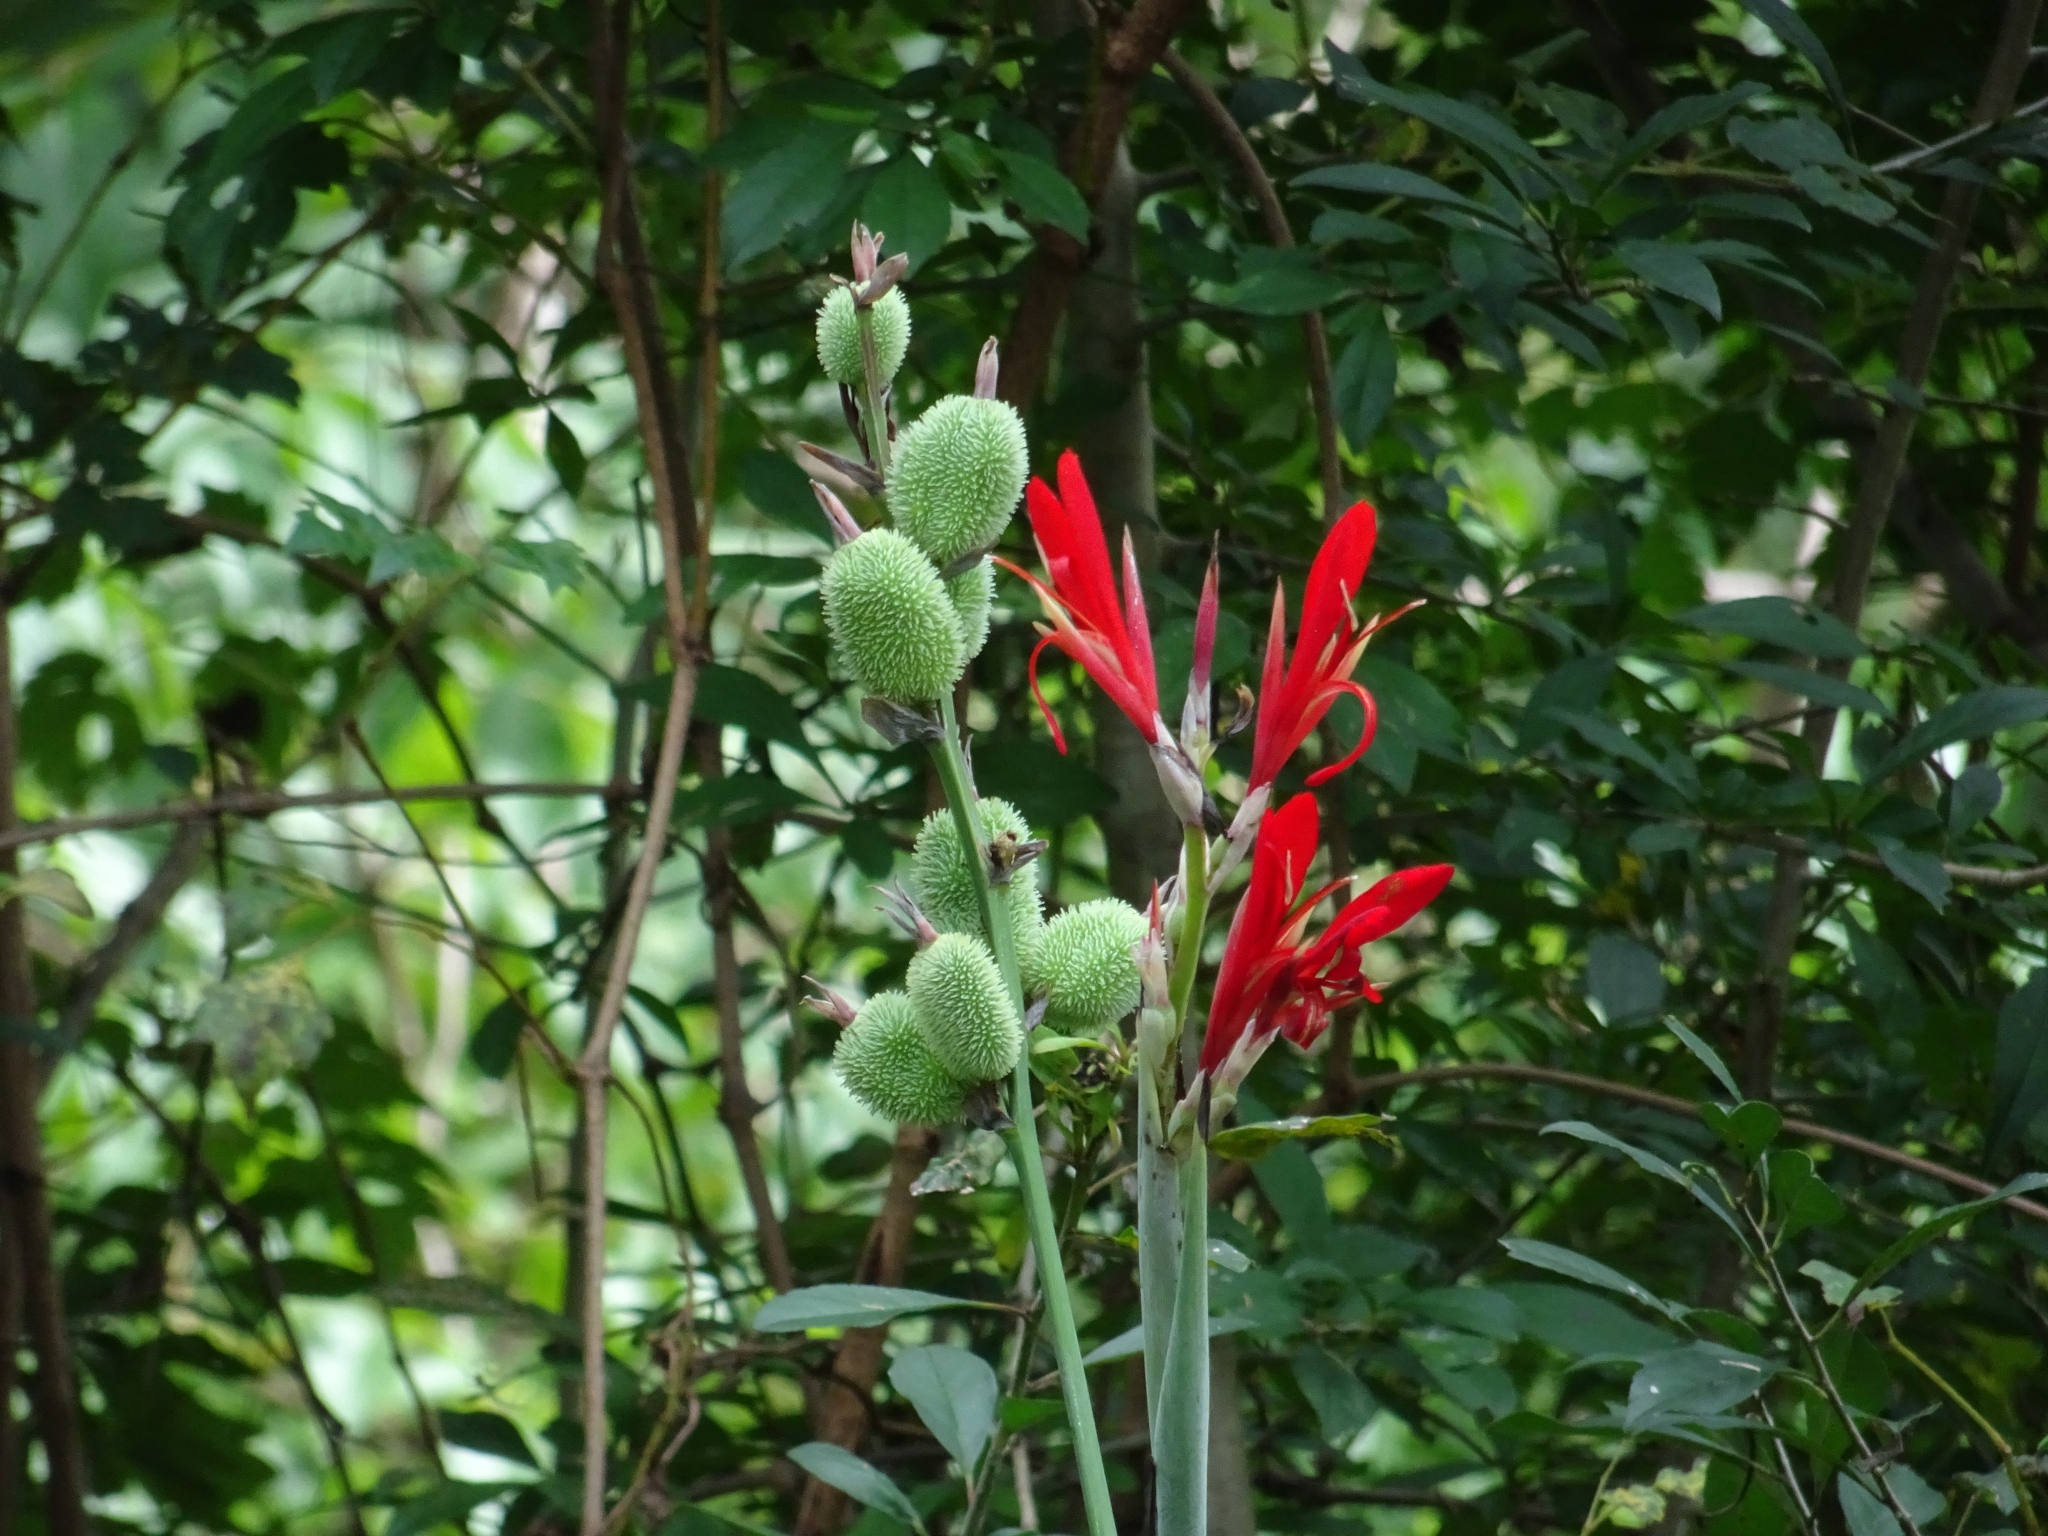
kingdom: Plantae
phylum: Tracheophyta
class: Liliopsida
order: Zingiberales
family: Cannaceae
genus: Canna
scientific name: Canna indica
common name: Indian shot
